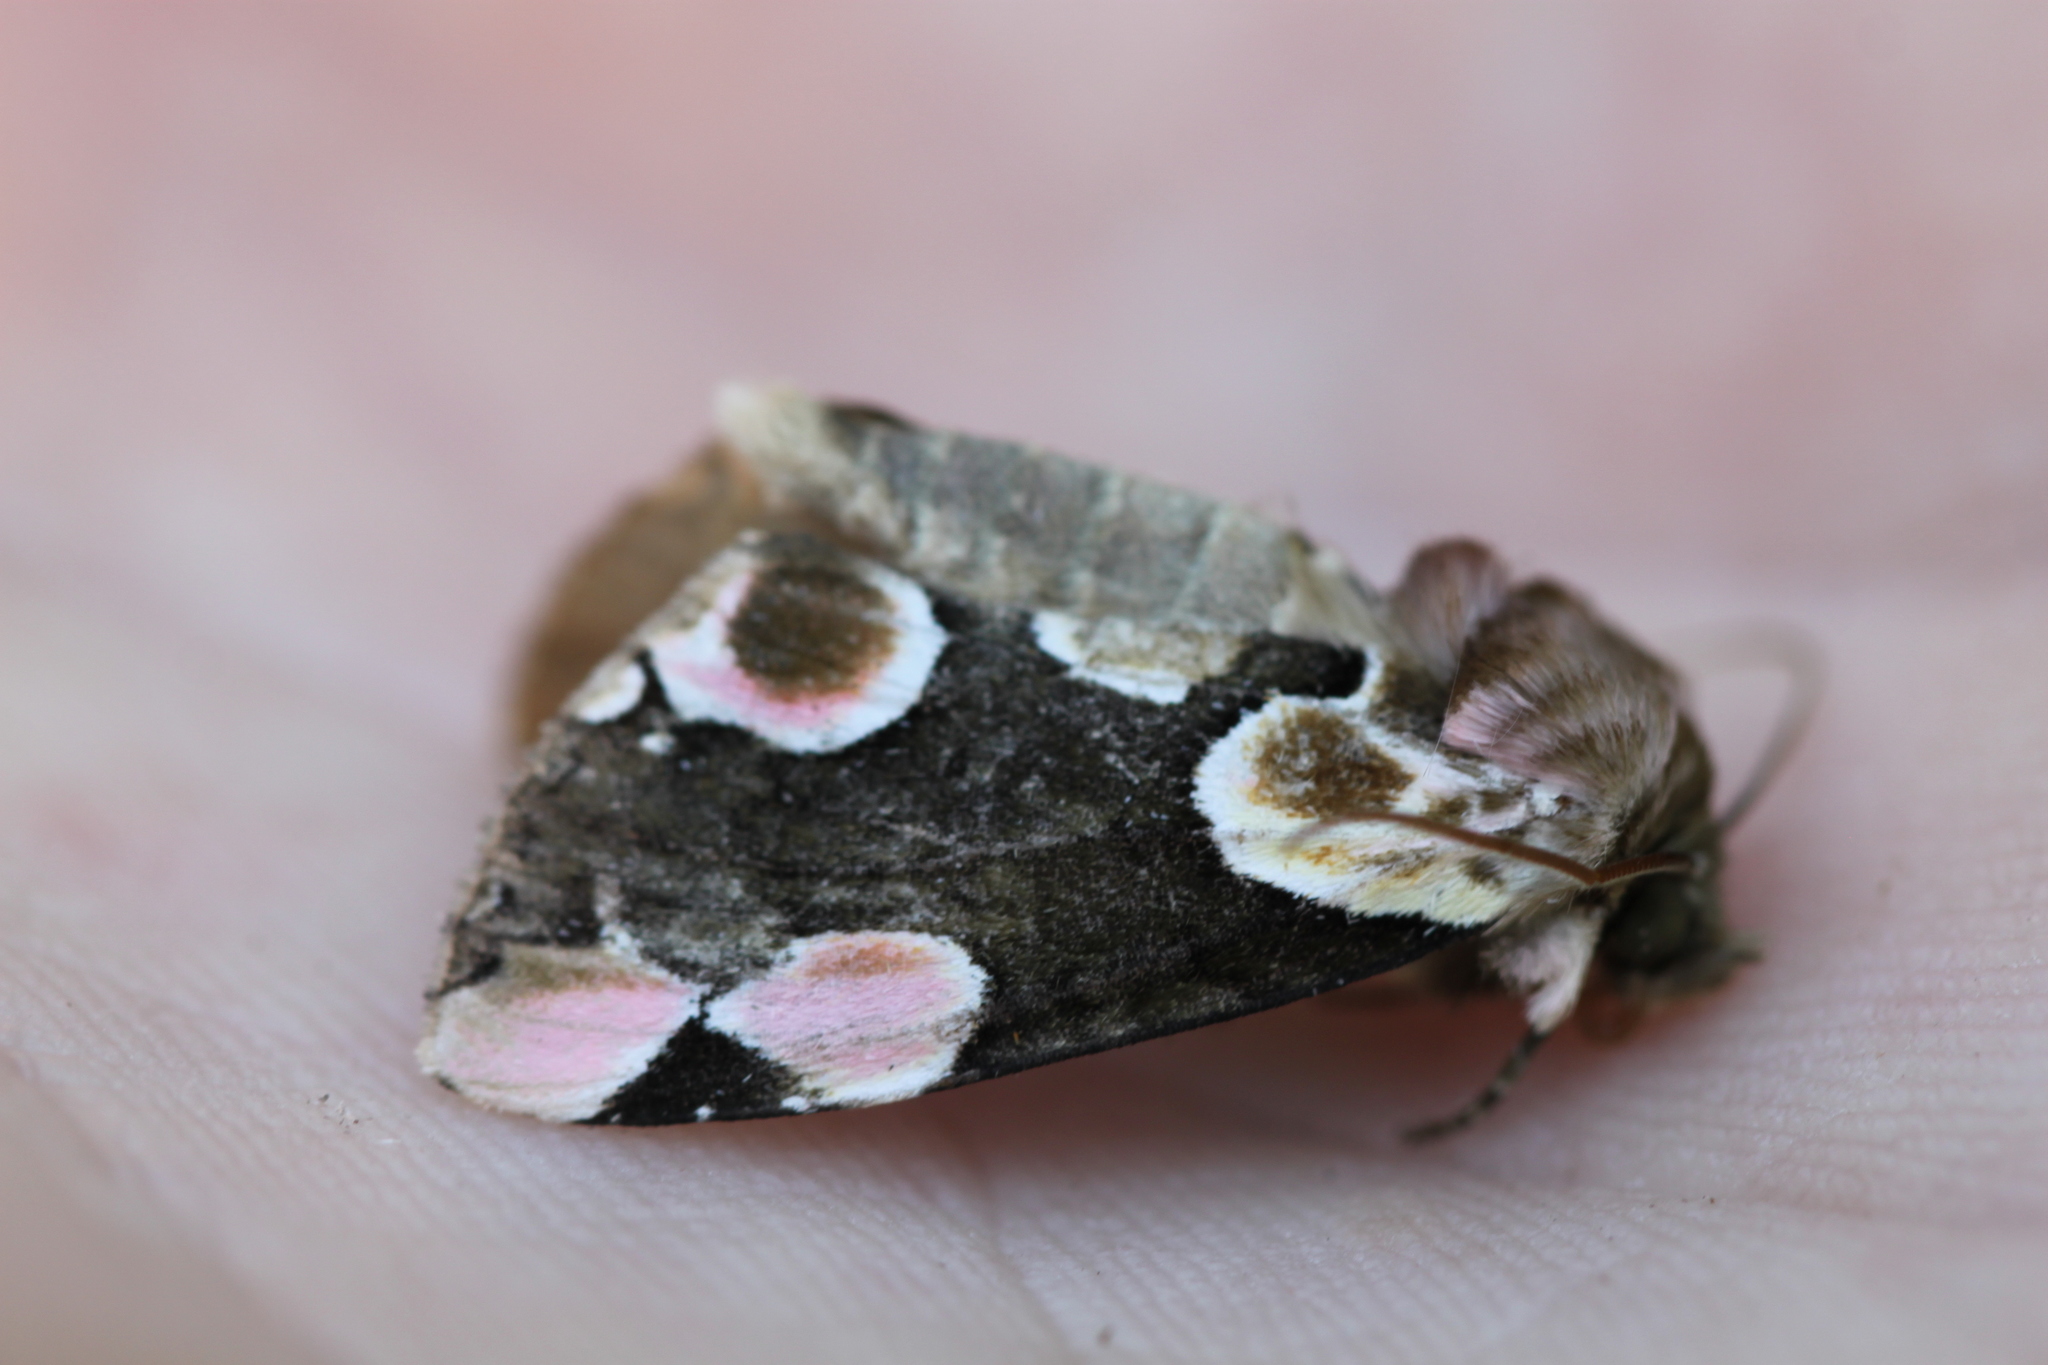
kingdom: Animalia
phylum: Arthropoda
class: Insecta
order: Lepidoptera
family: Drepanidae
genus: Thyatira
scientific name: Thyatira batis
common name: Peach blossom
